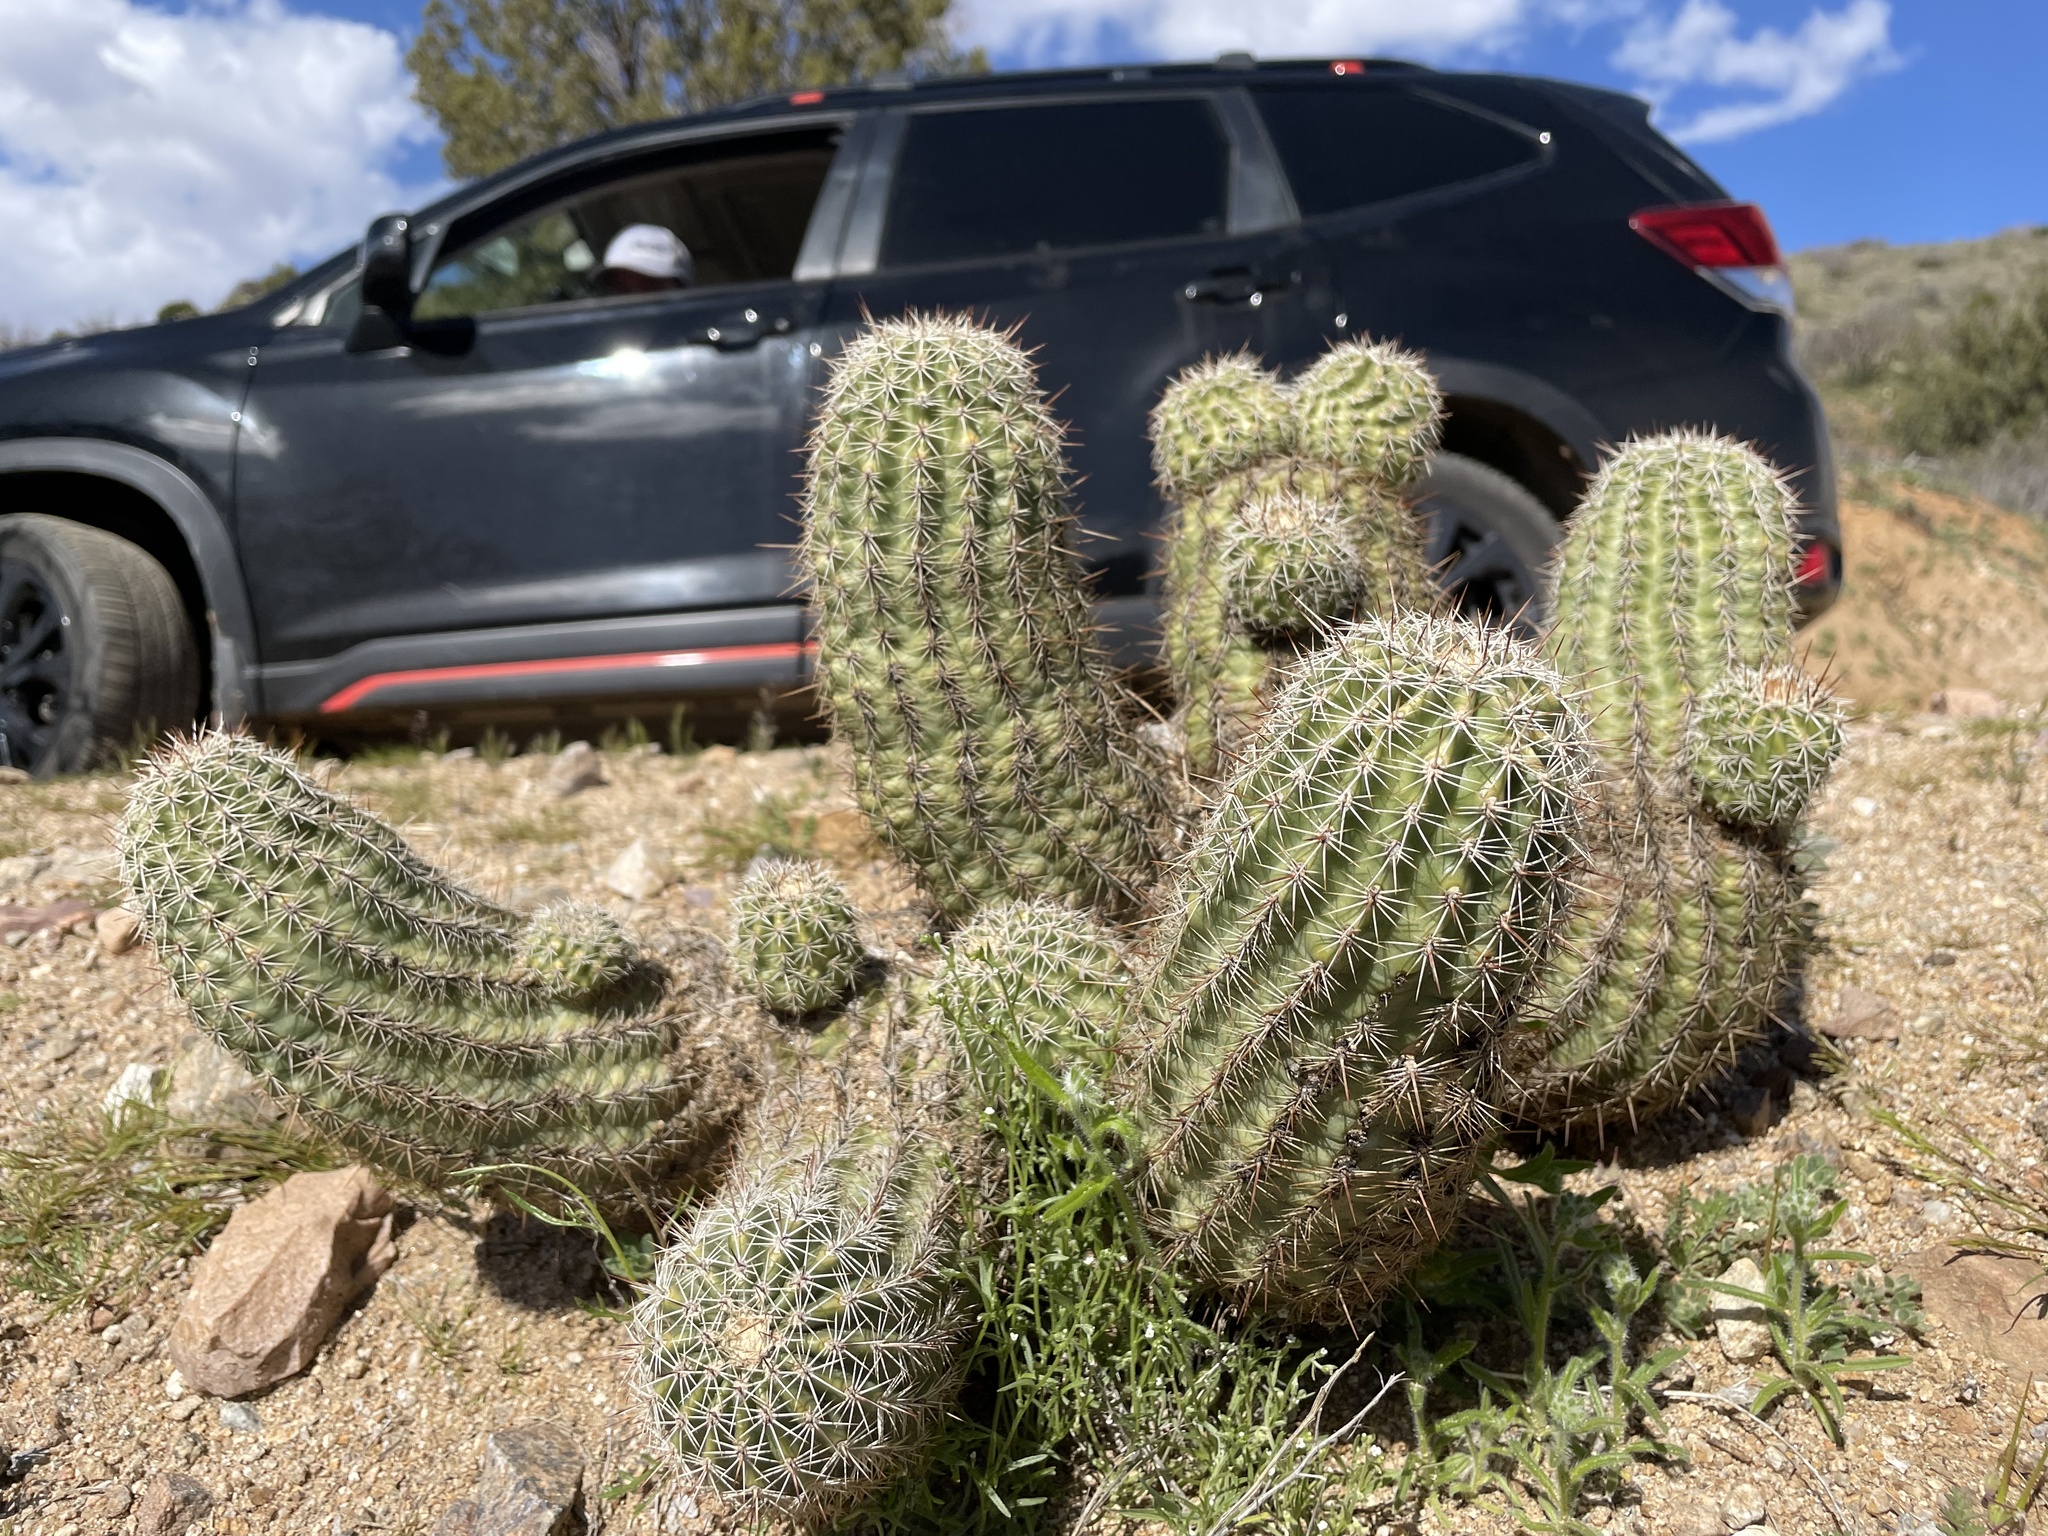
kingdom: Plantae
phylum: Tracheophyta
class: Magnoliopsida
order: Caryophyllales
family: Cactaceae
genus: Echinocereus
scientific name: Echinocereus bonkerae
